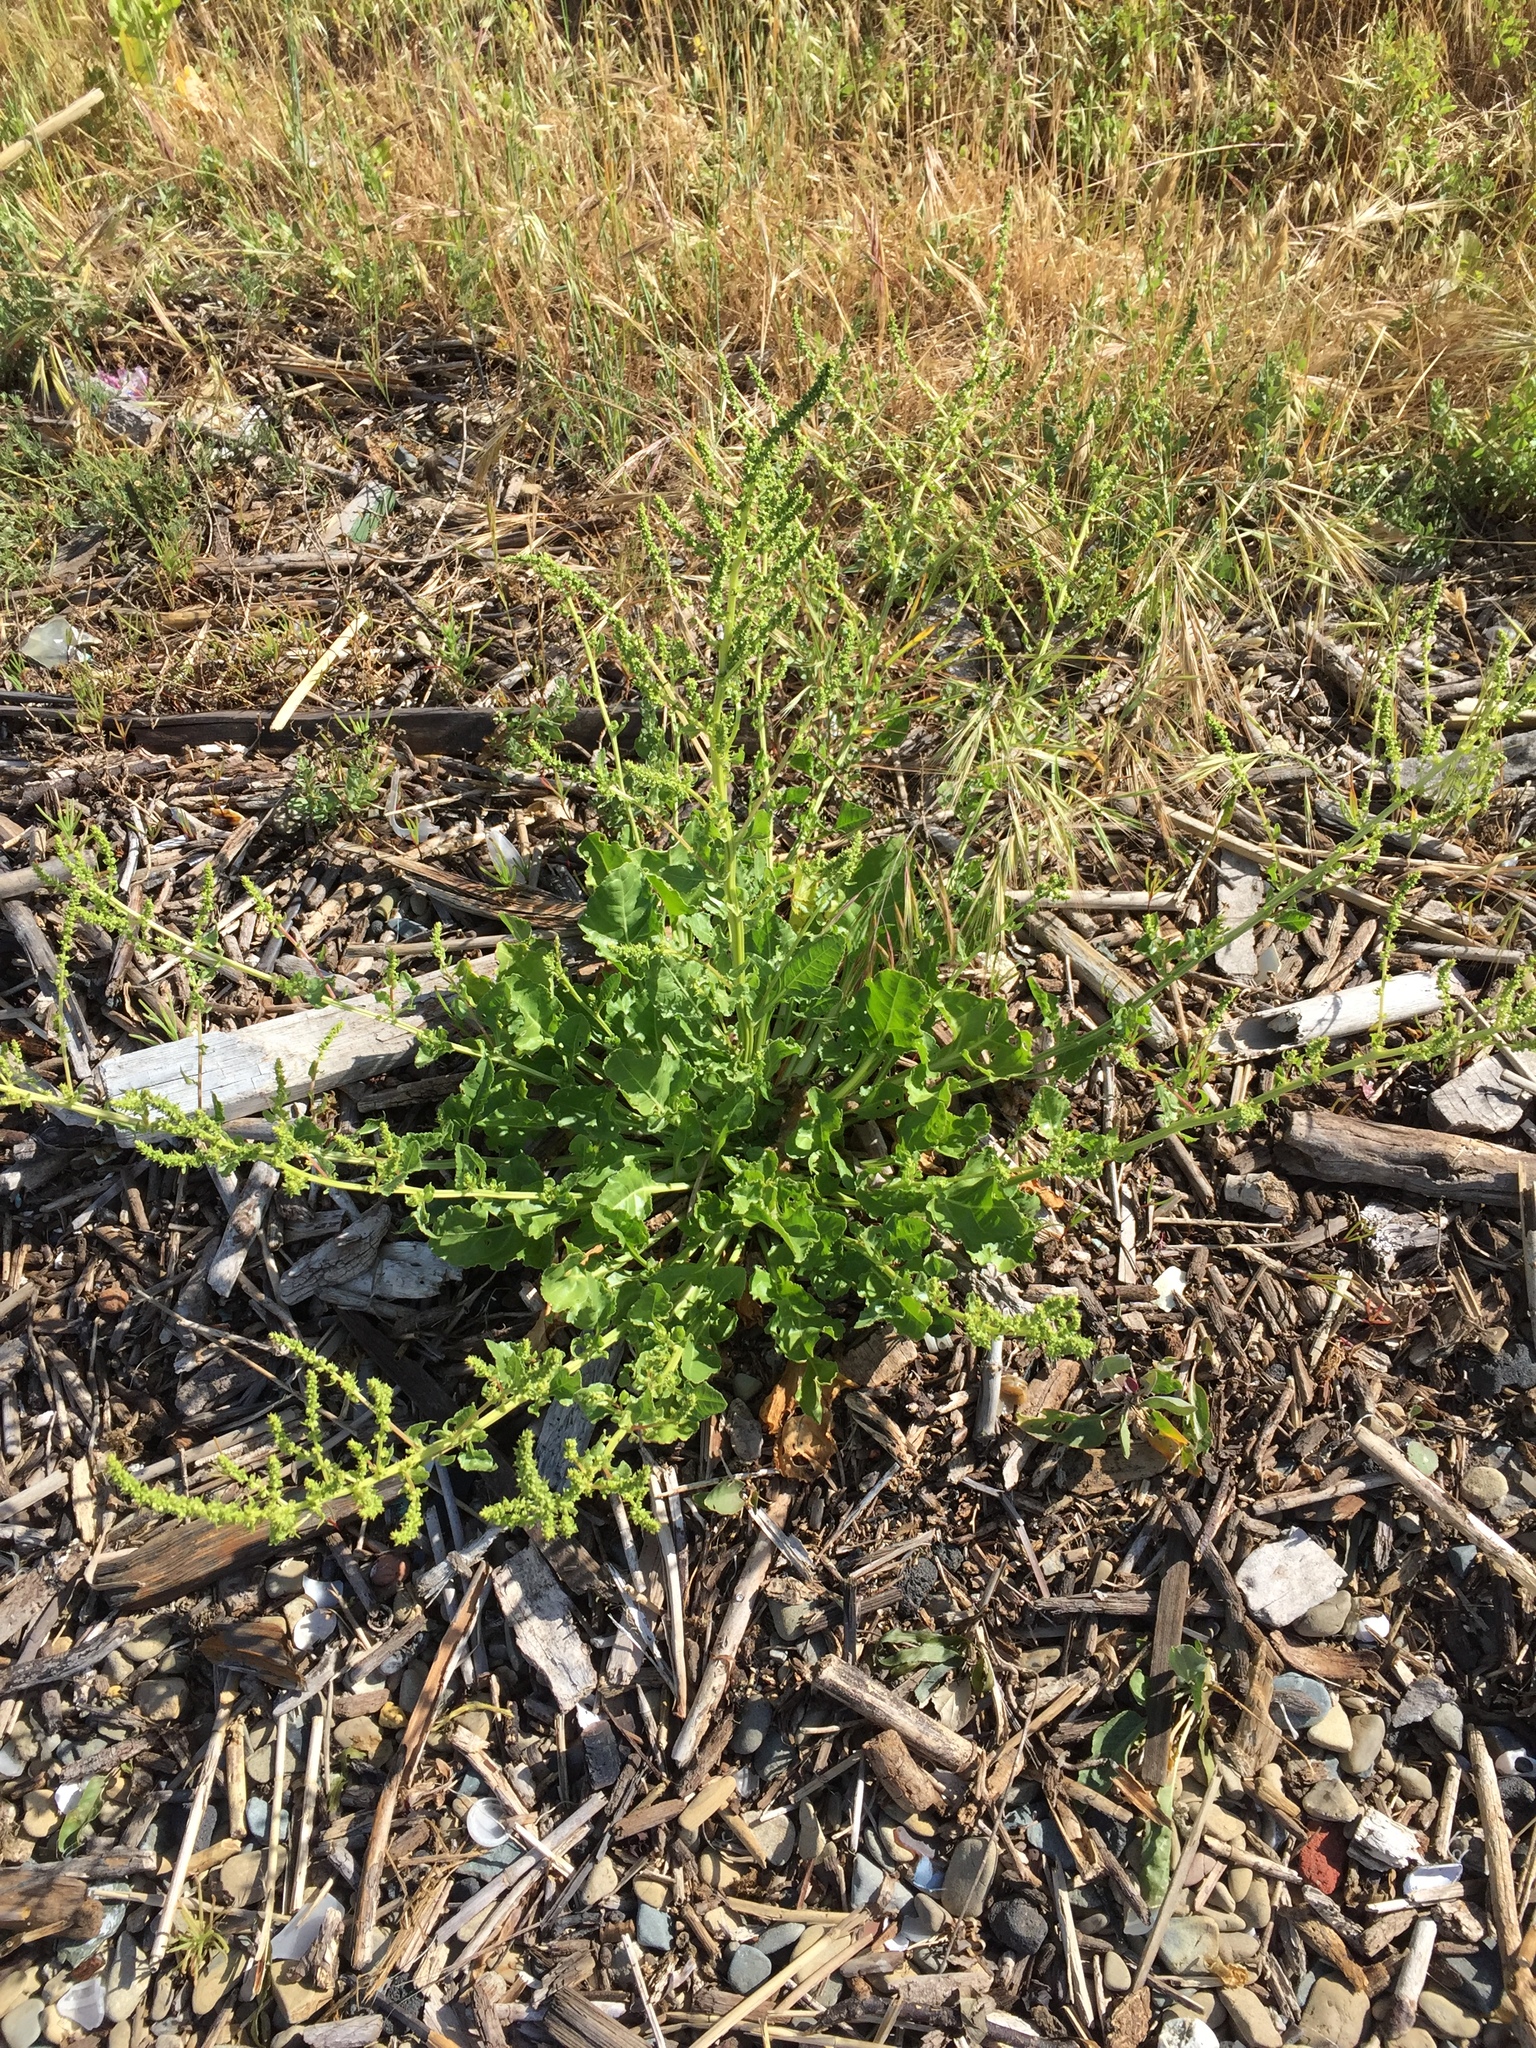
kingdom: Plantae
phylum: Tracheophyta
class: Magnoliopsida
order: Caryophyllales
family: Amaranthaceae
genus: Beta
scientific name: Beta vulgaris
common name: Beet
